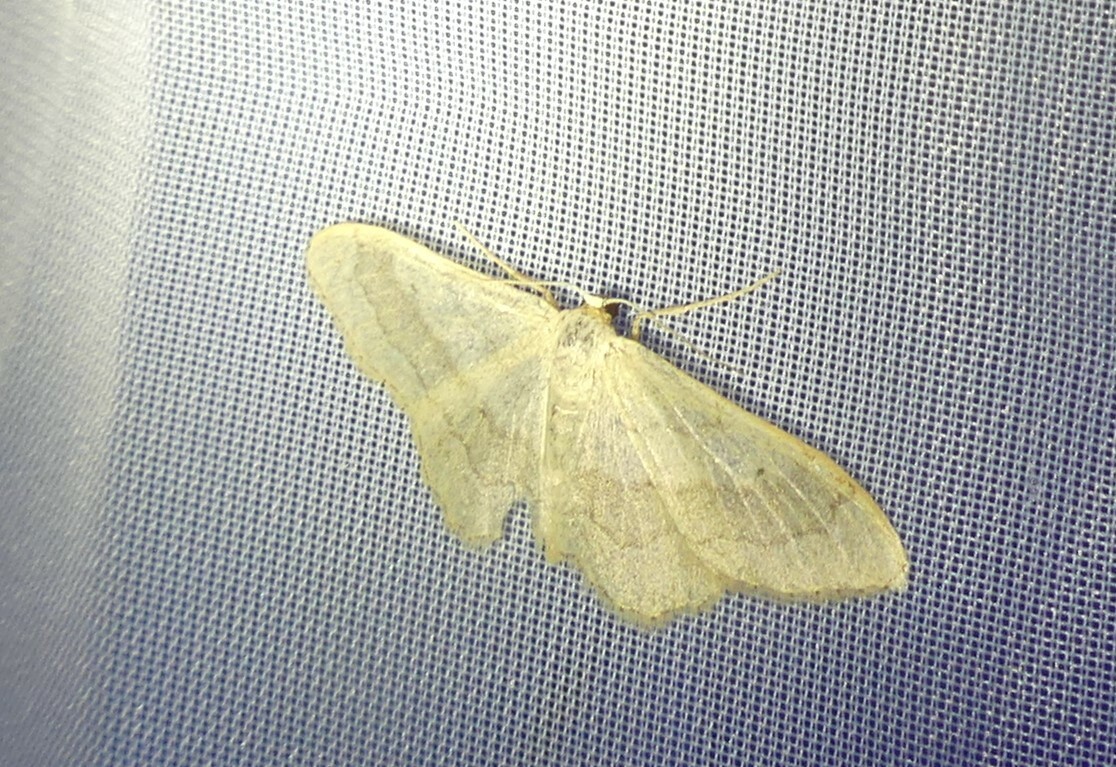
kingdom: Animalia
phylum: Arthropoda
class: Insecta
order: Lepidoptera
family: Geometridae
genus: Idaea
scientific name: Idaea aversata
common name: Riband wave
